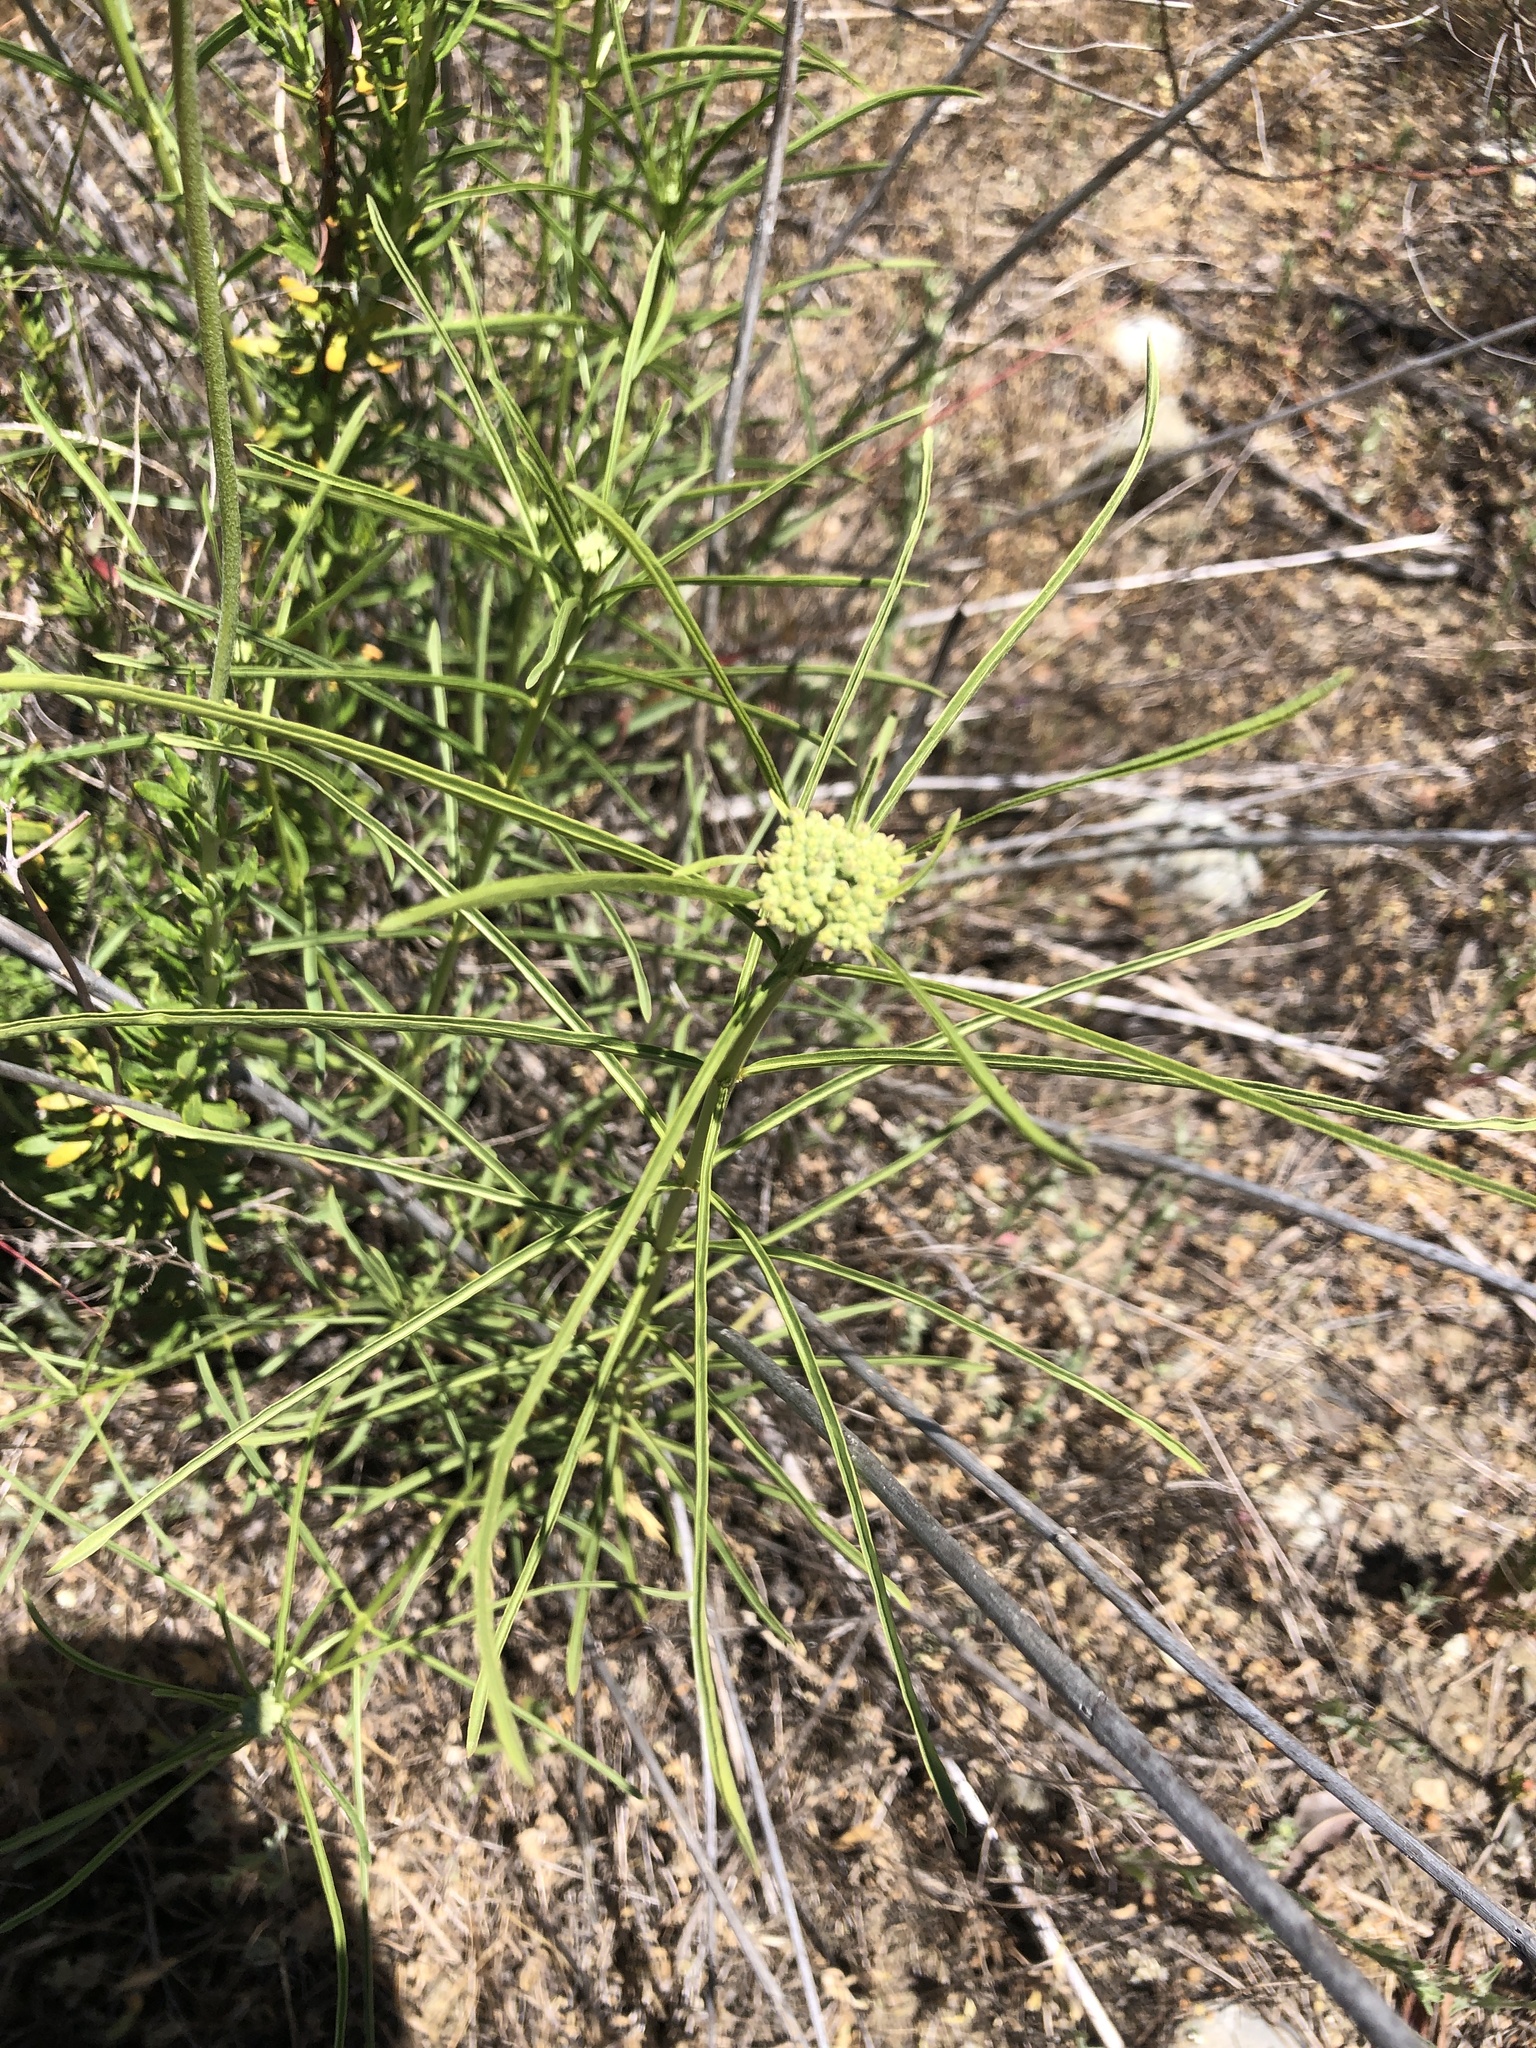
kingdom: Plantae
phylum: Tracheophyta
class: Magnoliopsida
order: Gentianales
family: Apocynaceae
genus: Asclepias
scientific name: Asclepias fascicularis
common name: Mexican milkweed
